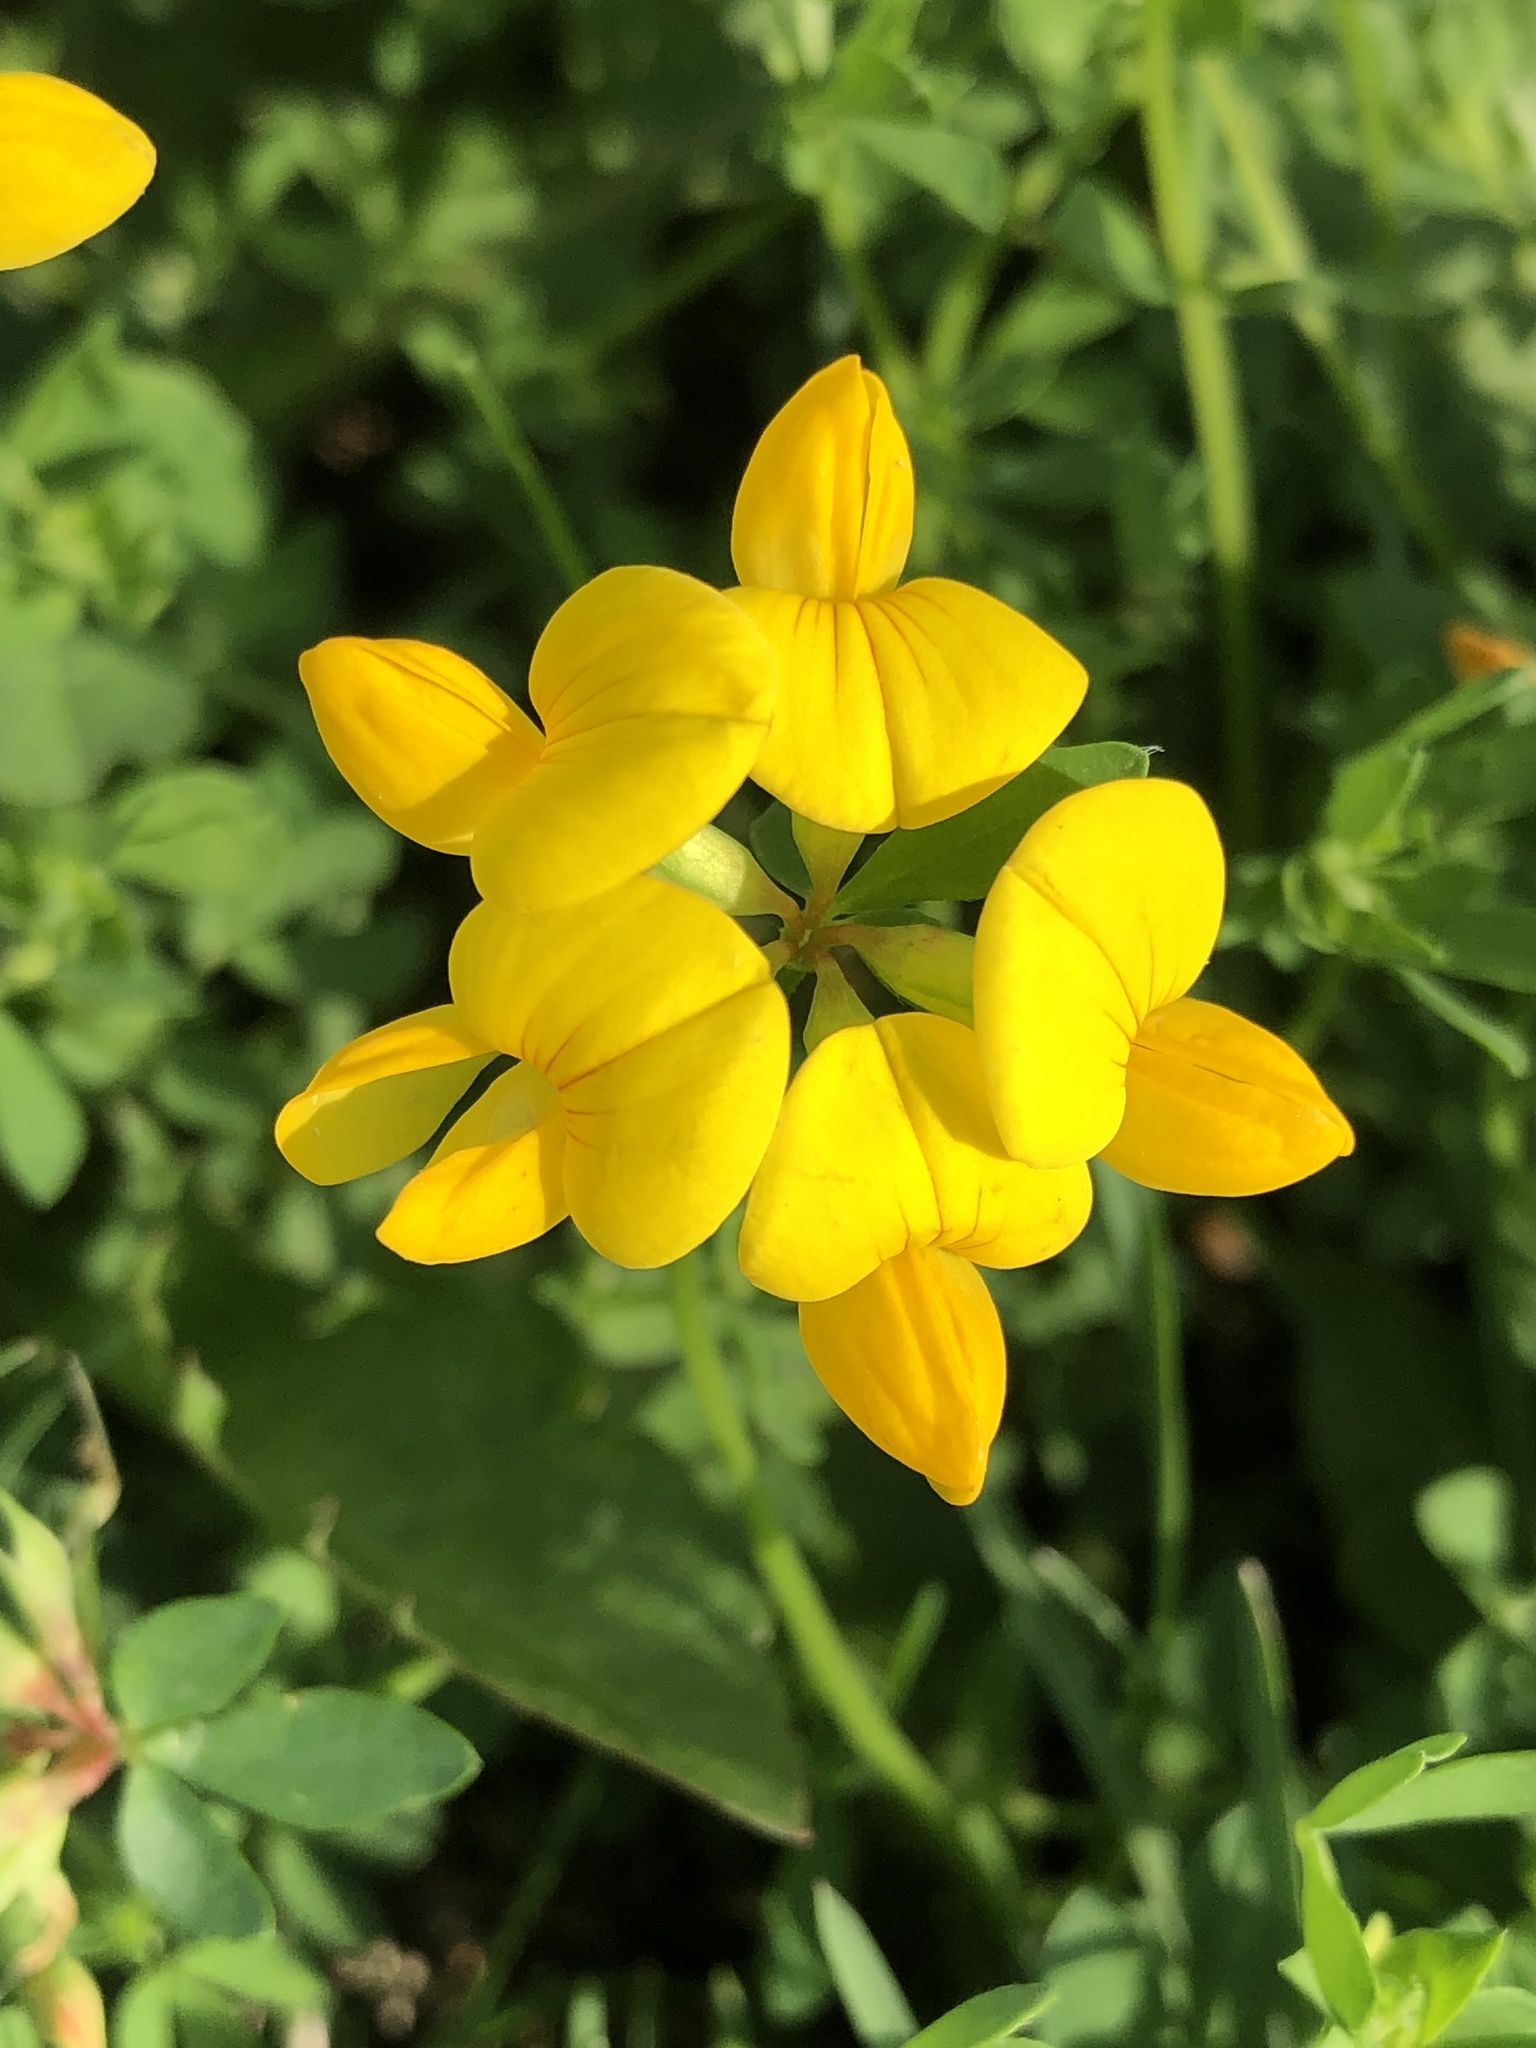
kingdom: Plantae
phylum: Tracheophyta
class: Magnoliopsida
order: Fabales
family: Fabaceae
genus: Lotus
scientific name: Lotus corniculatus
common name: Common bird's-foot-trefoil
